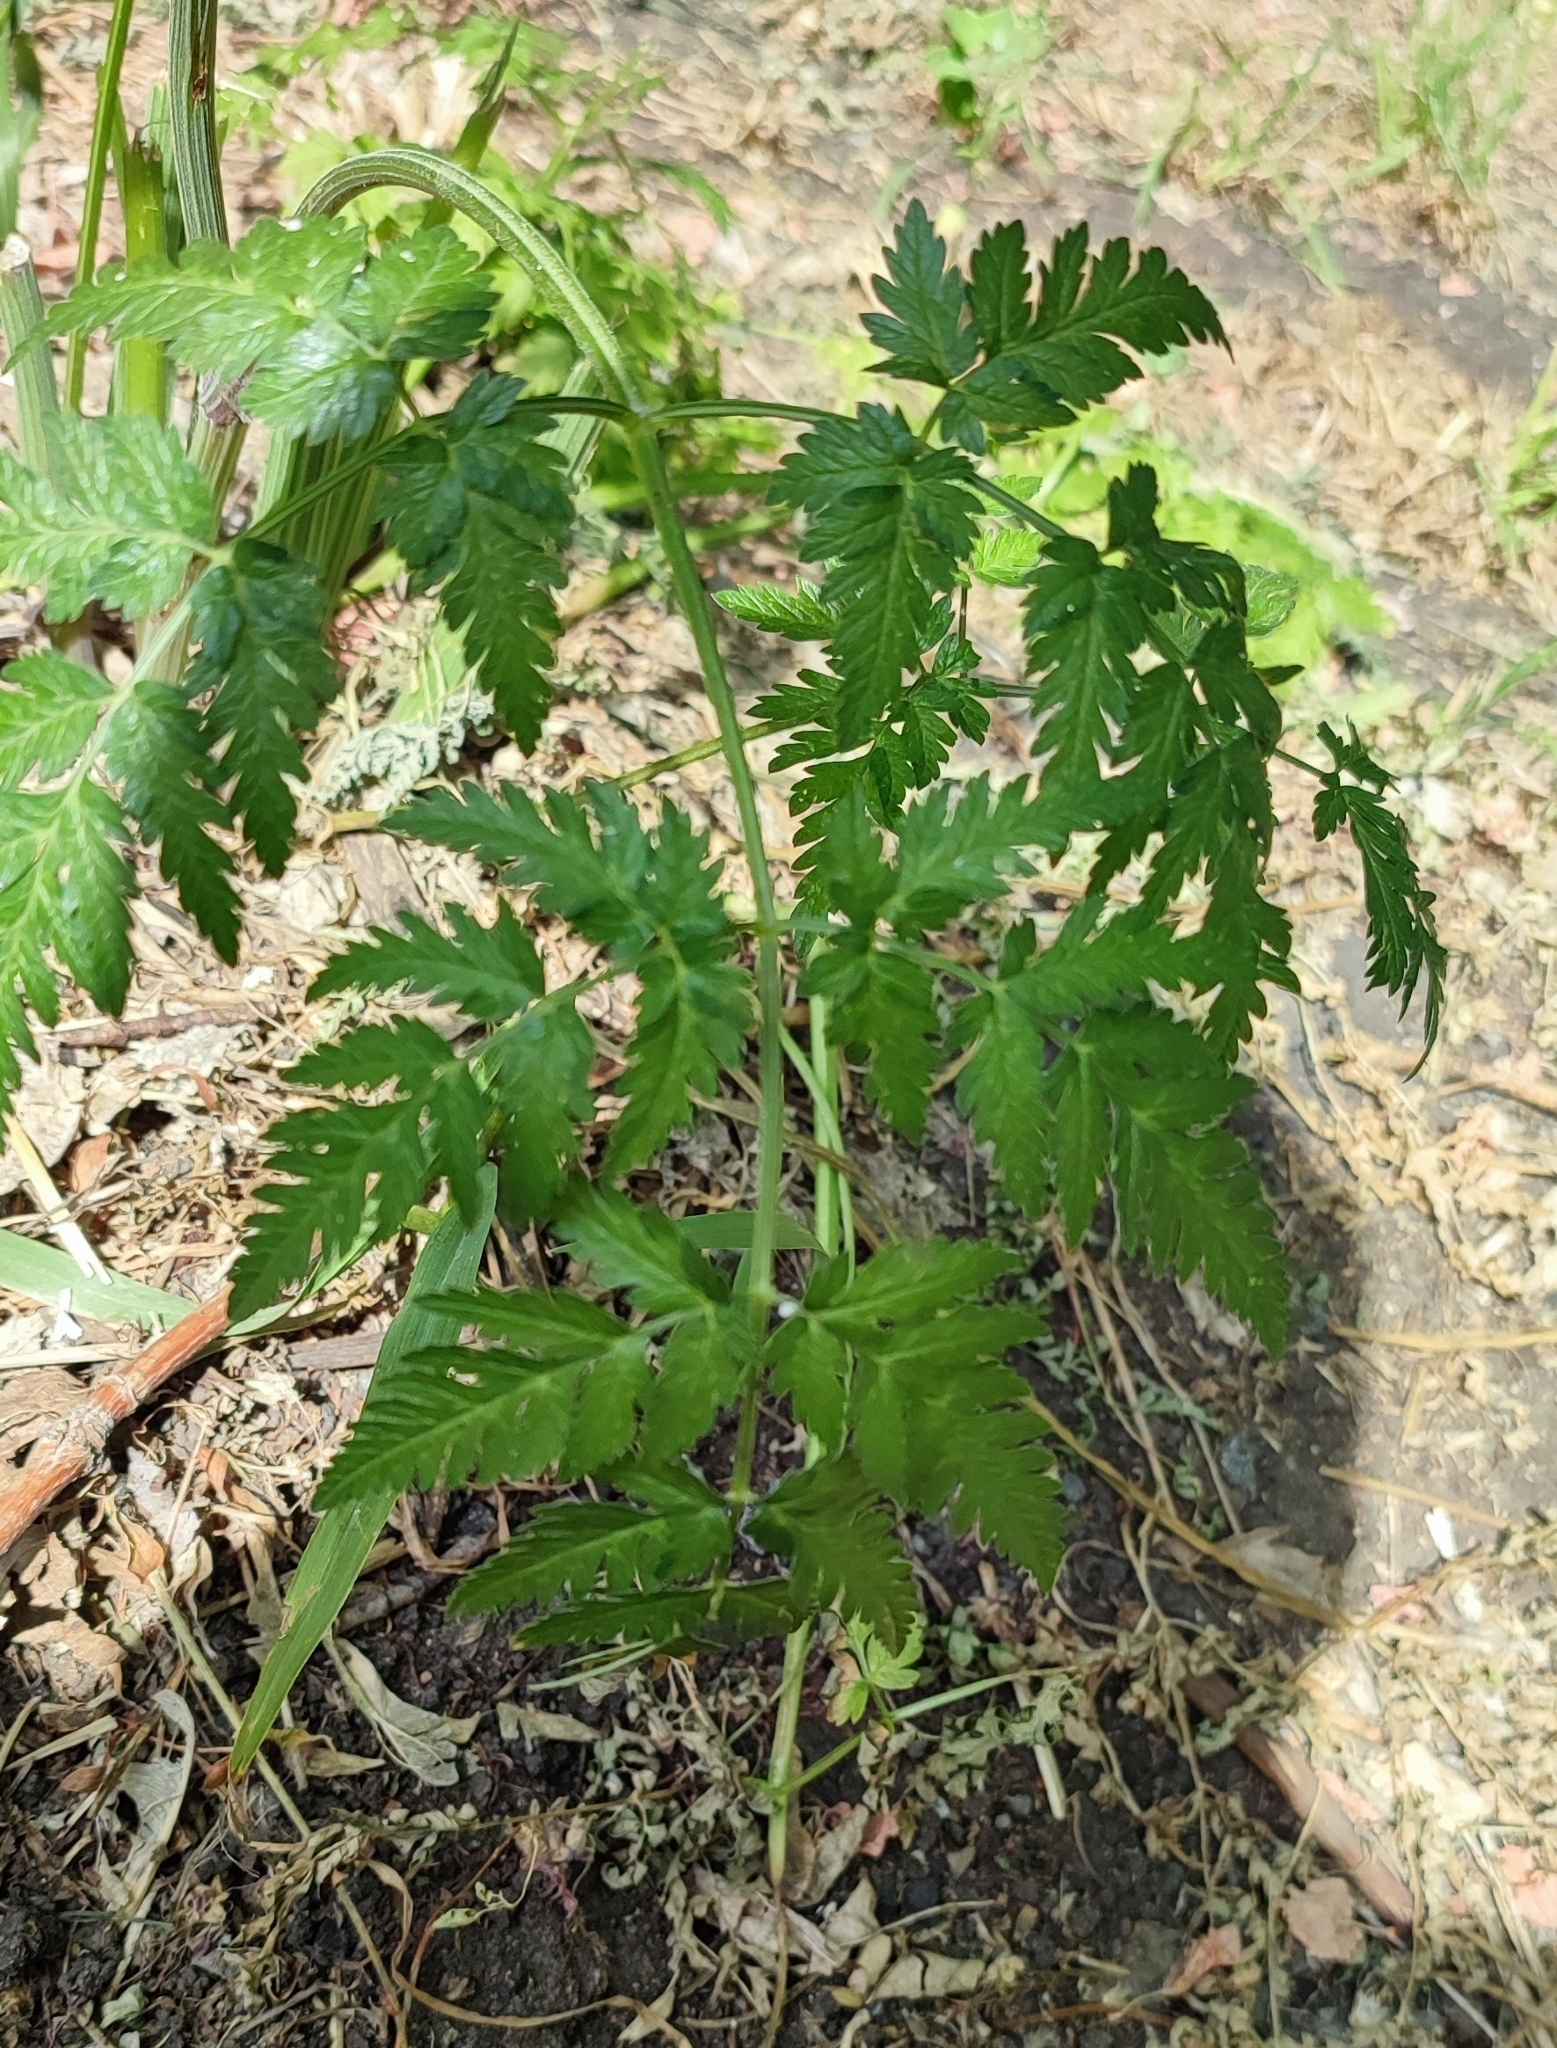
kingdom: Plantae
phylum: Tracheophyta
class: Magnoliopsida
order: Apiales
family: Apiaceae
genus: Anthriscus
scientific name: Anthriscus sylvestris
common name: Cow parsley
